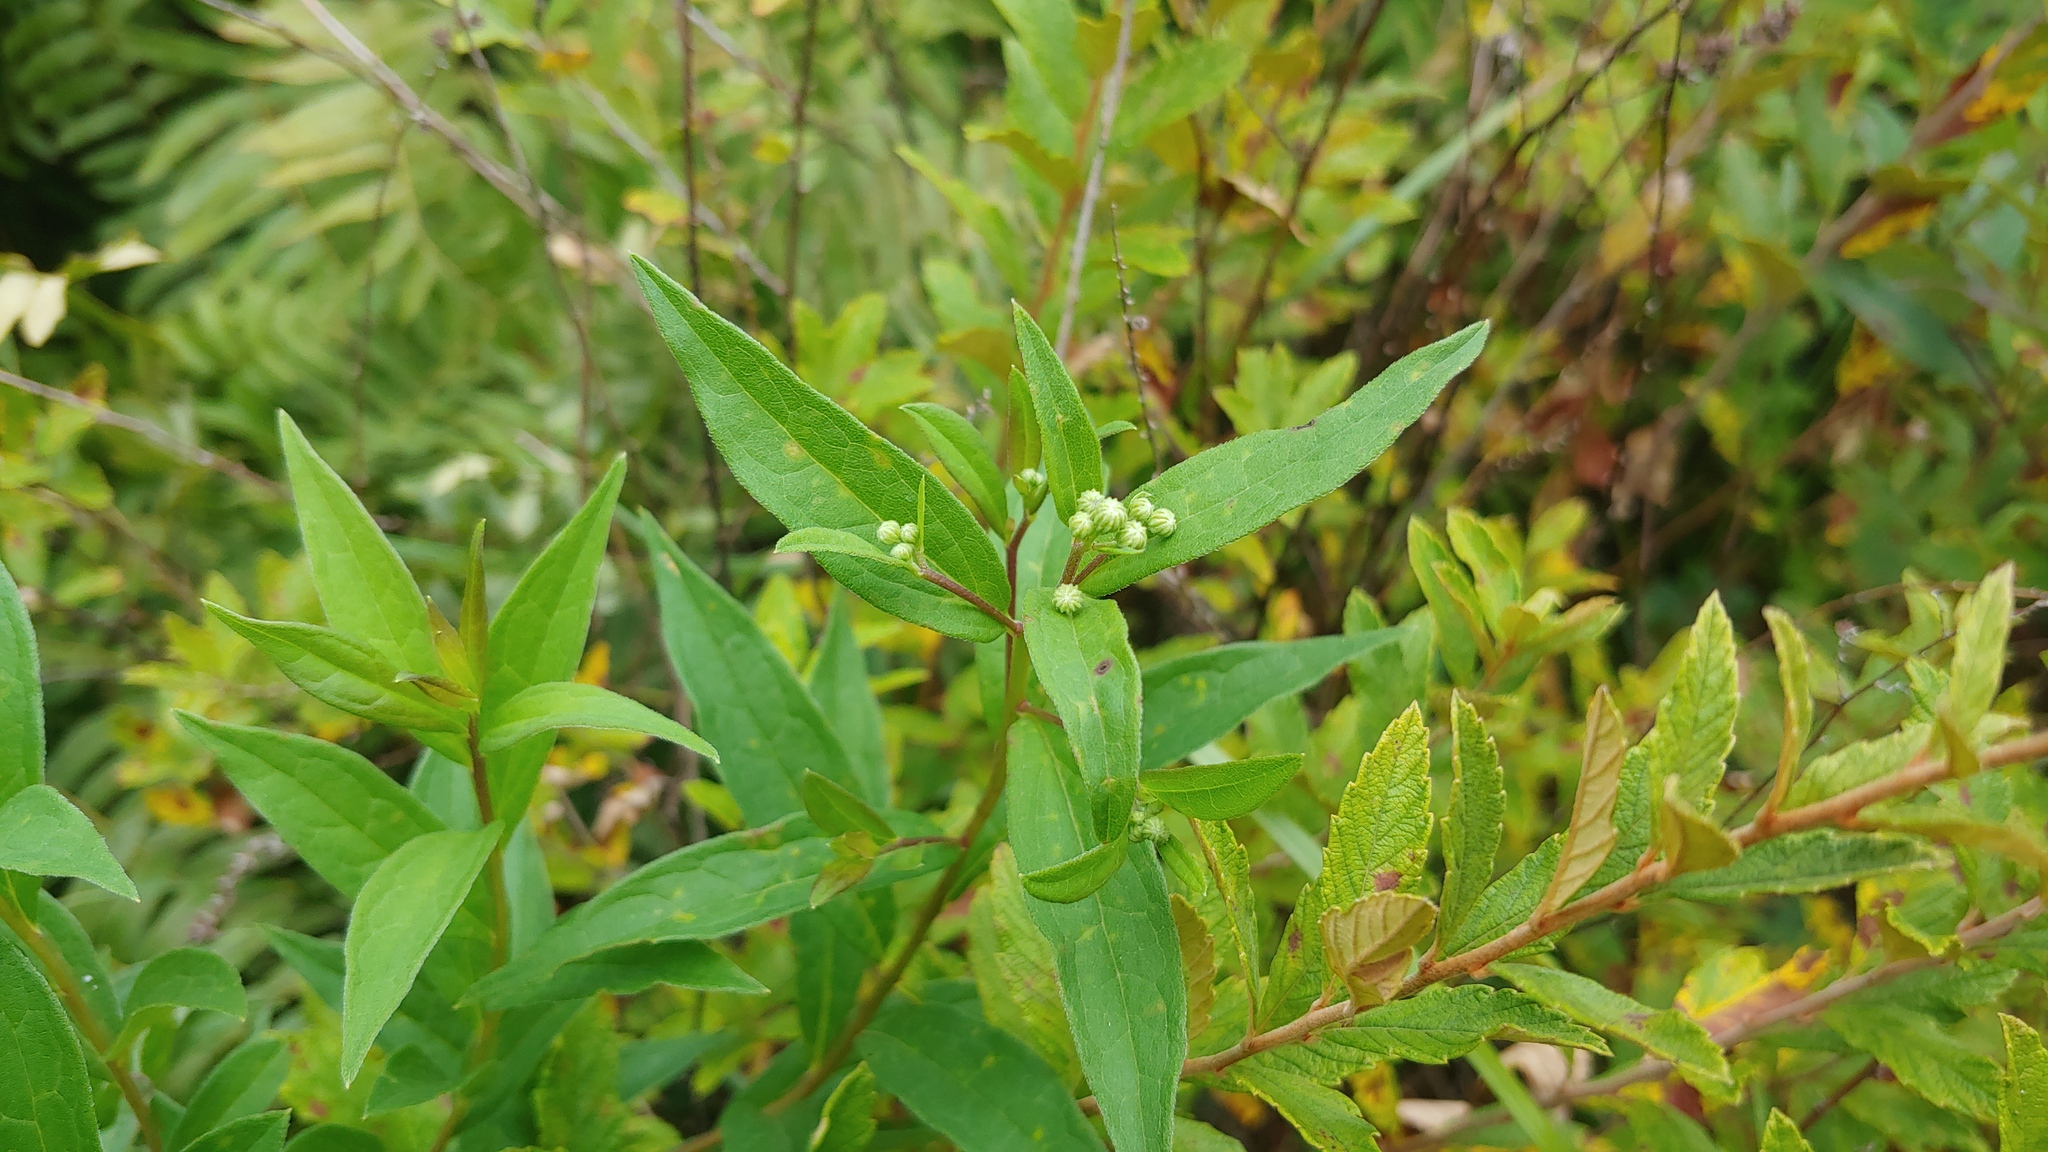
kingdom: Plantae
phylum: Tracheophyta
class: Magnoliopsida
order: Asterales
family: Asteraceae
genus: Doellingeria
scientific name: Doellingeria umbellata
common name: Flat-top white aster
